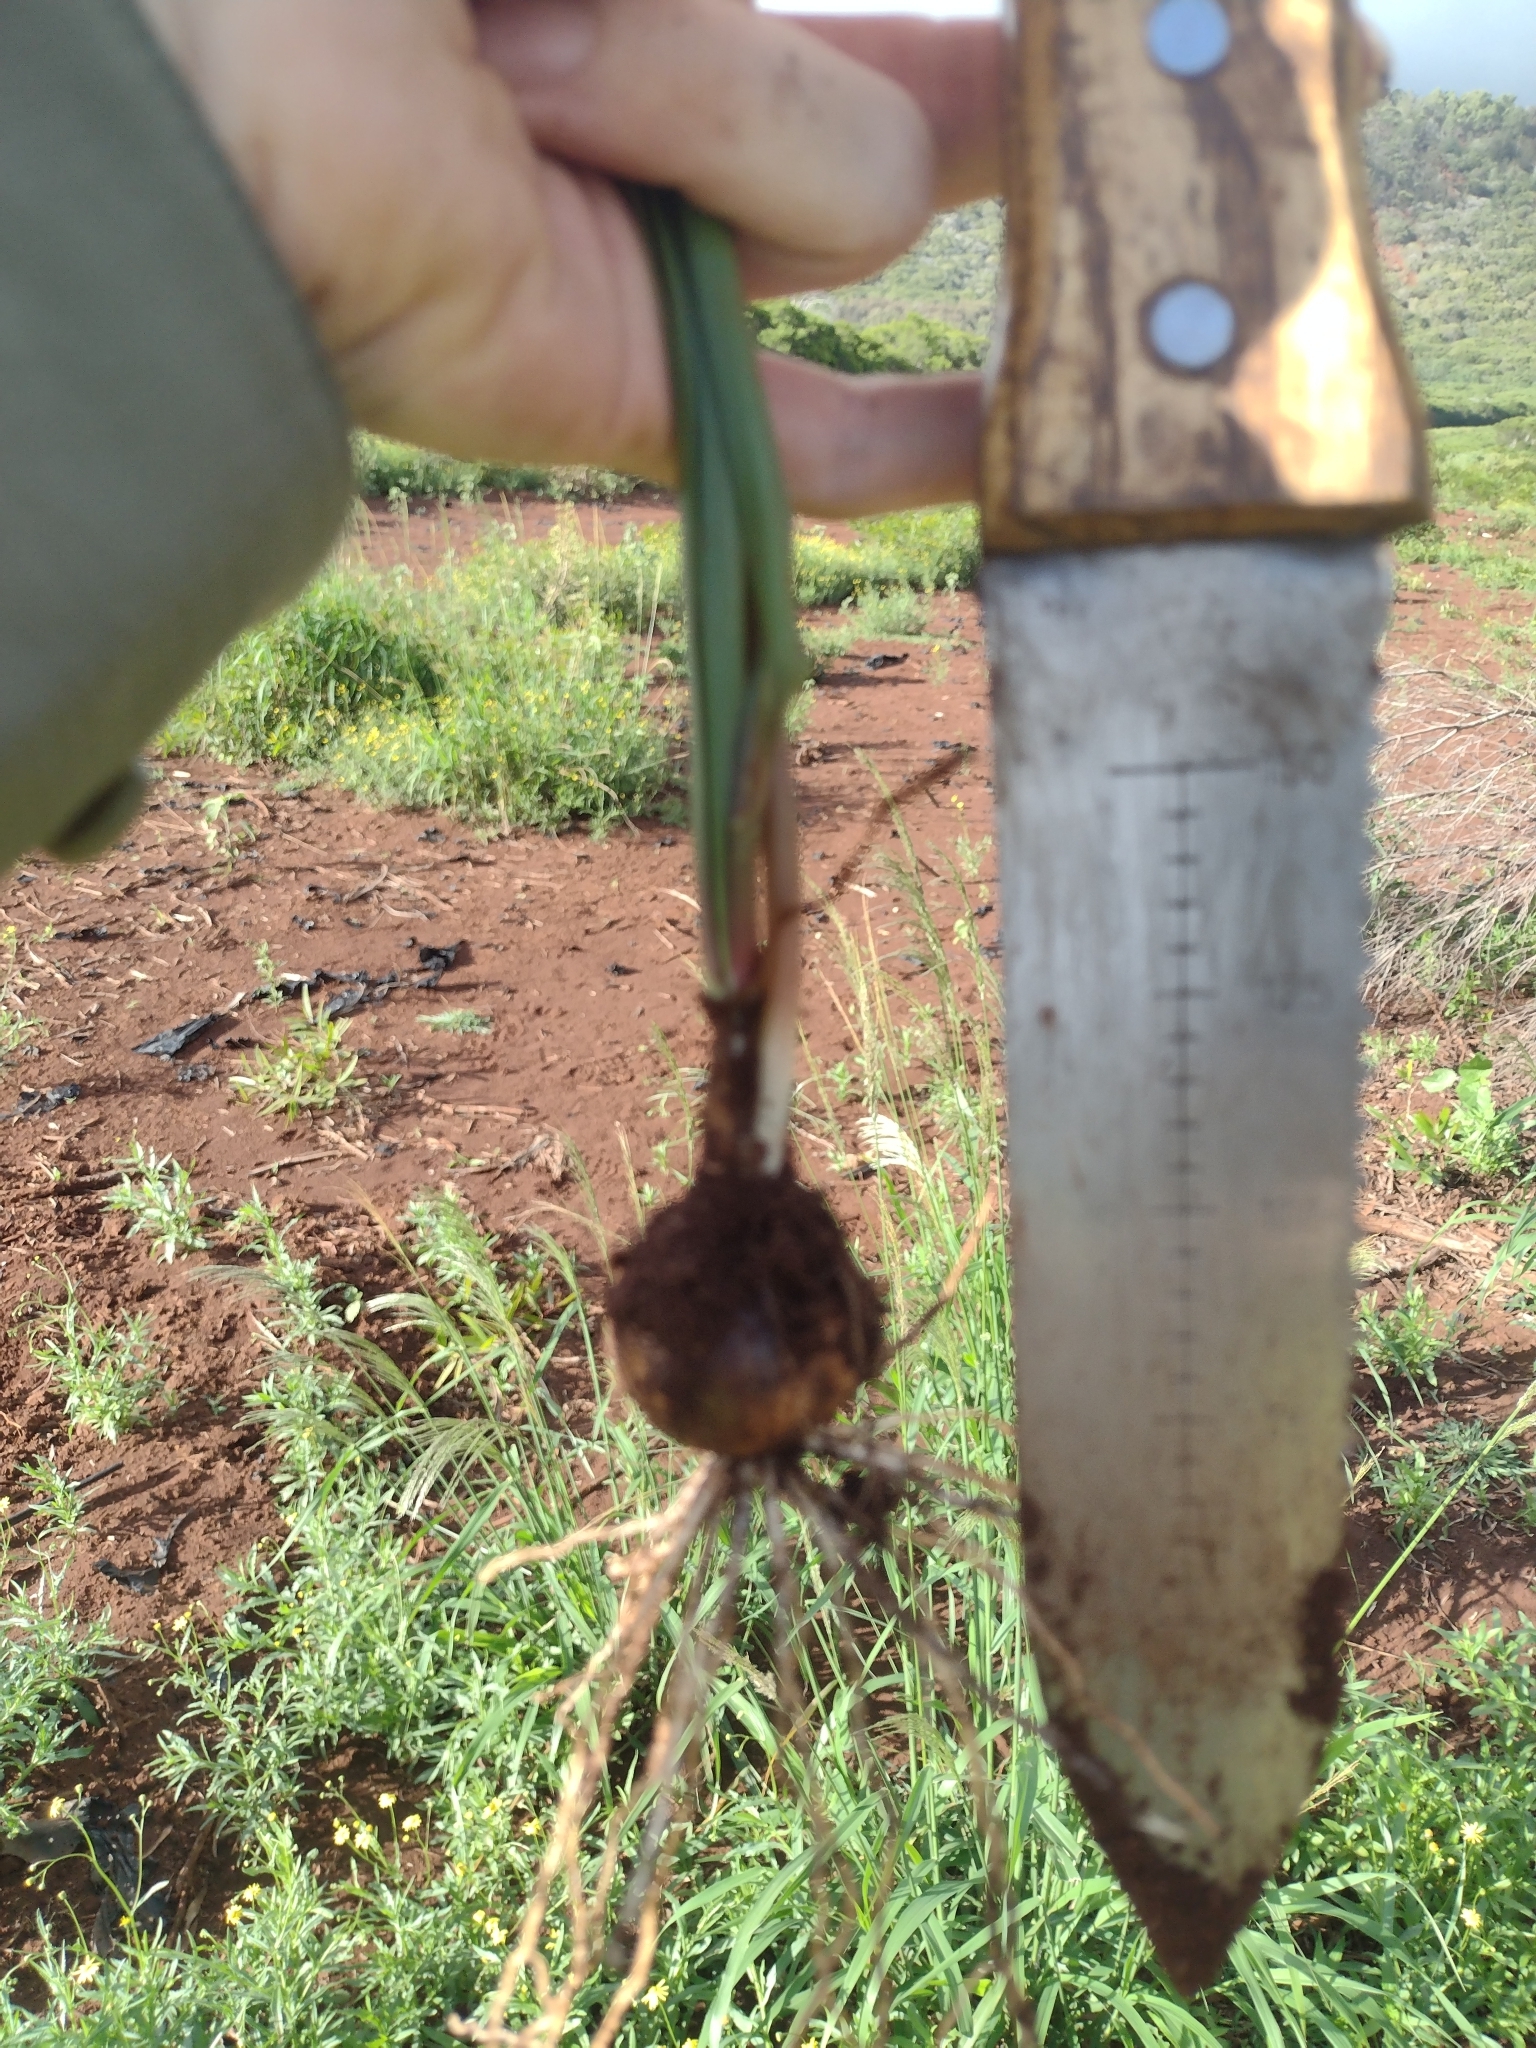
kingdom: Plantae
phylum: Tracheophyta
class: Liliopsida
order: Asparagales
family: Amaryllidaceae
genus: Zephyranthes
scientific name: Zephyranthes minuta
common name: Pink rain lily
